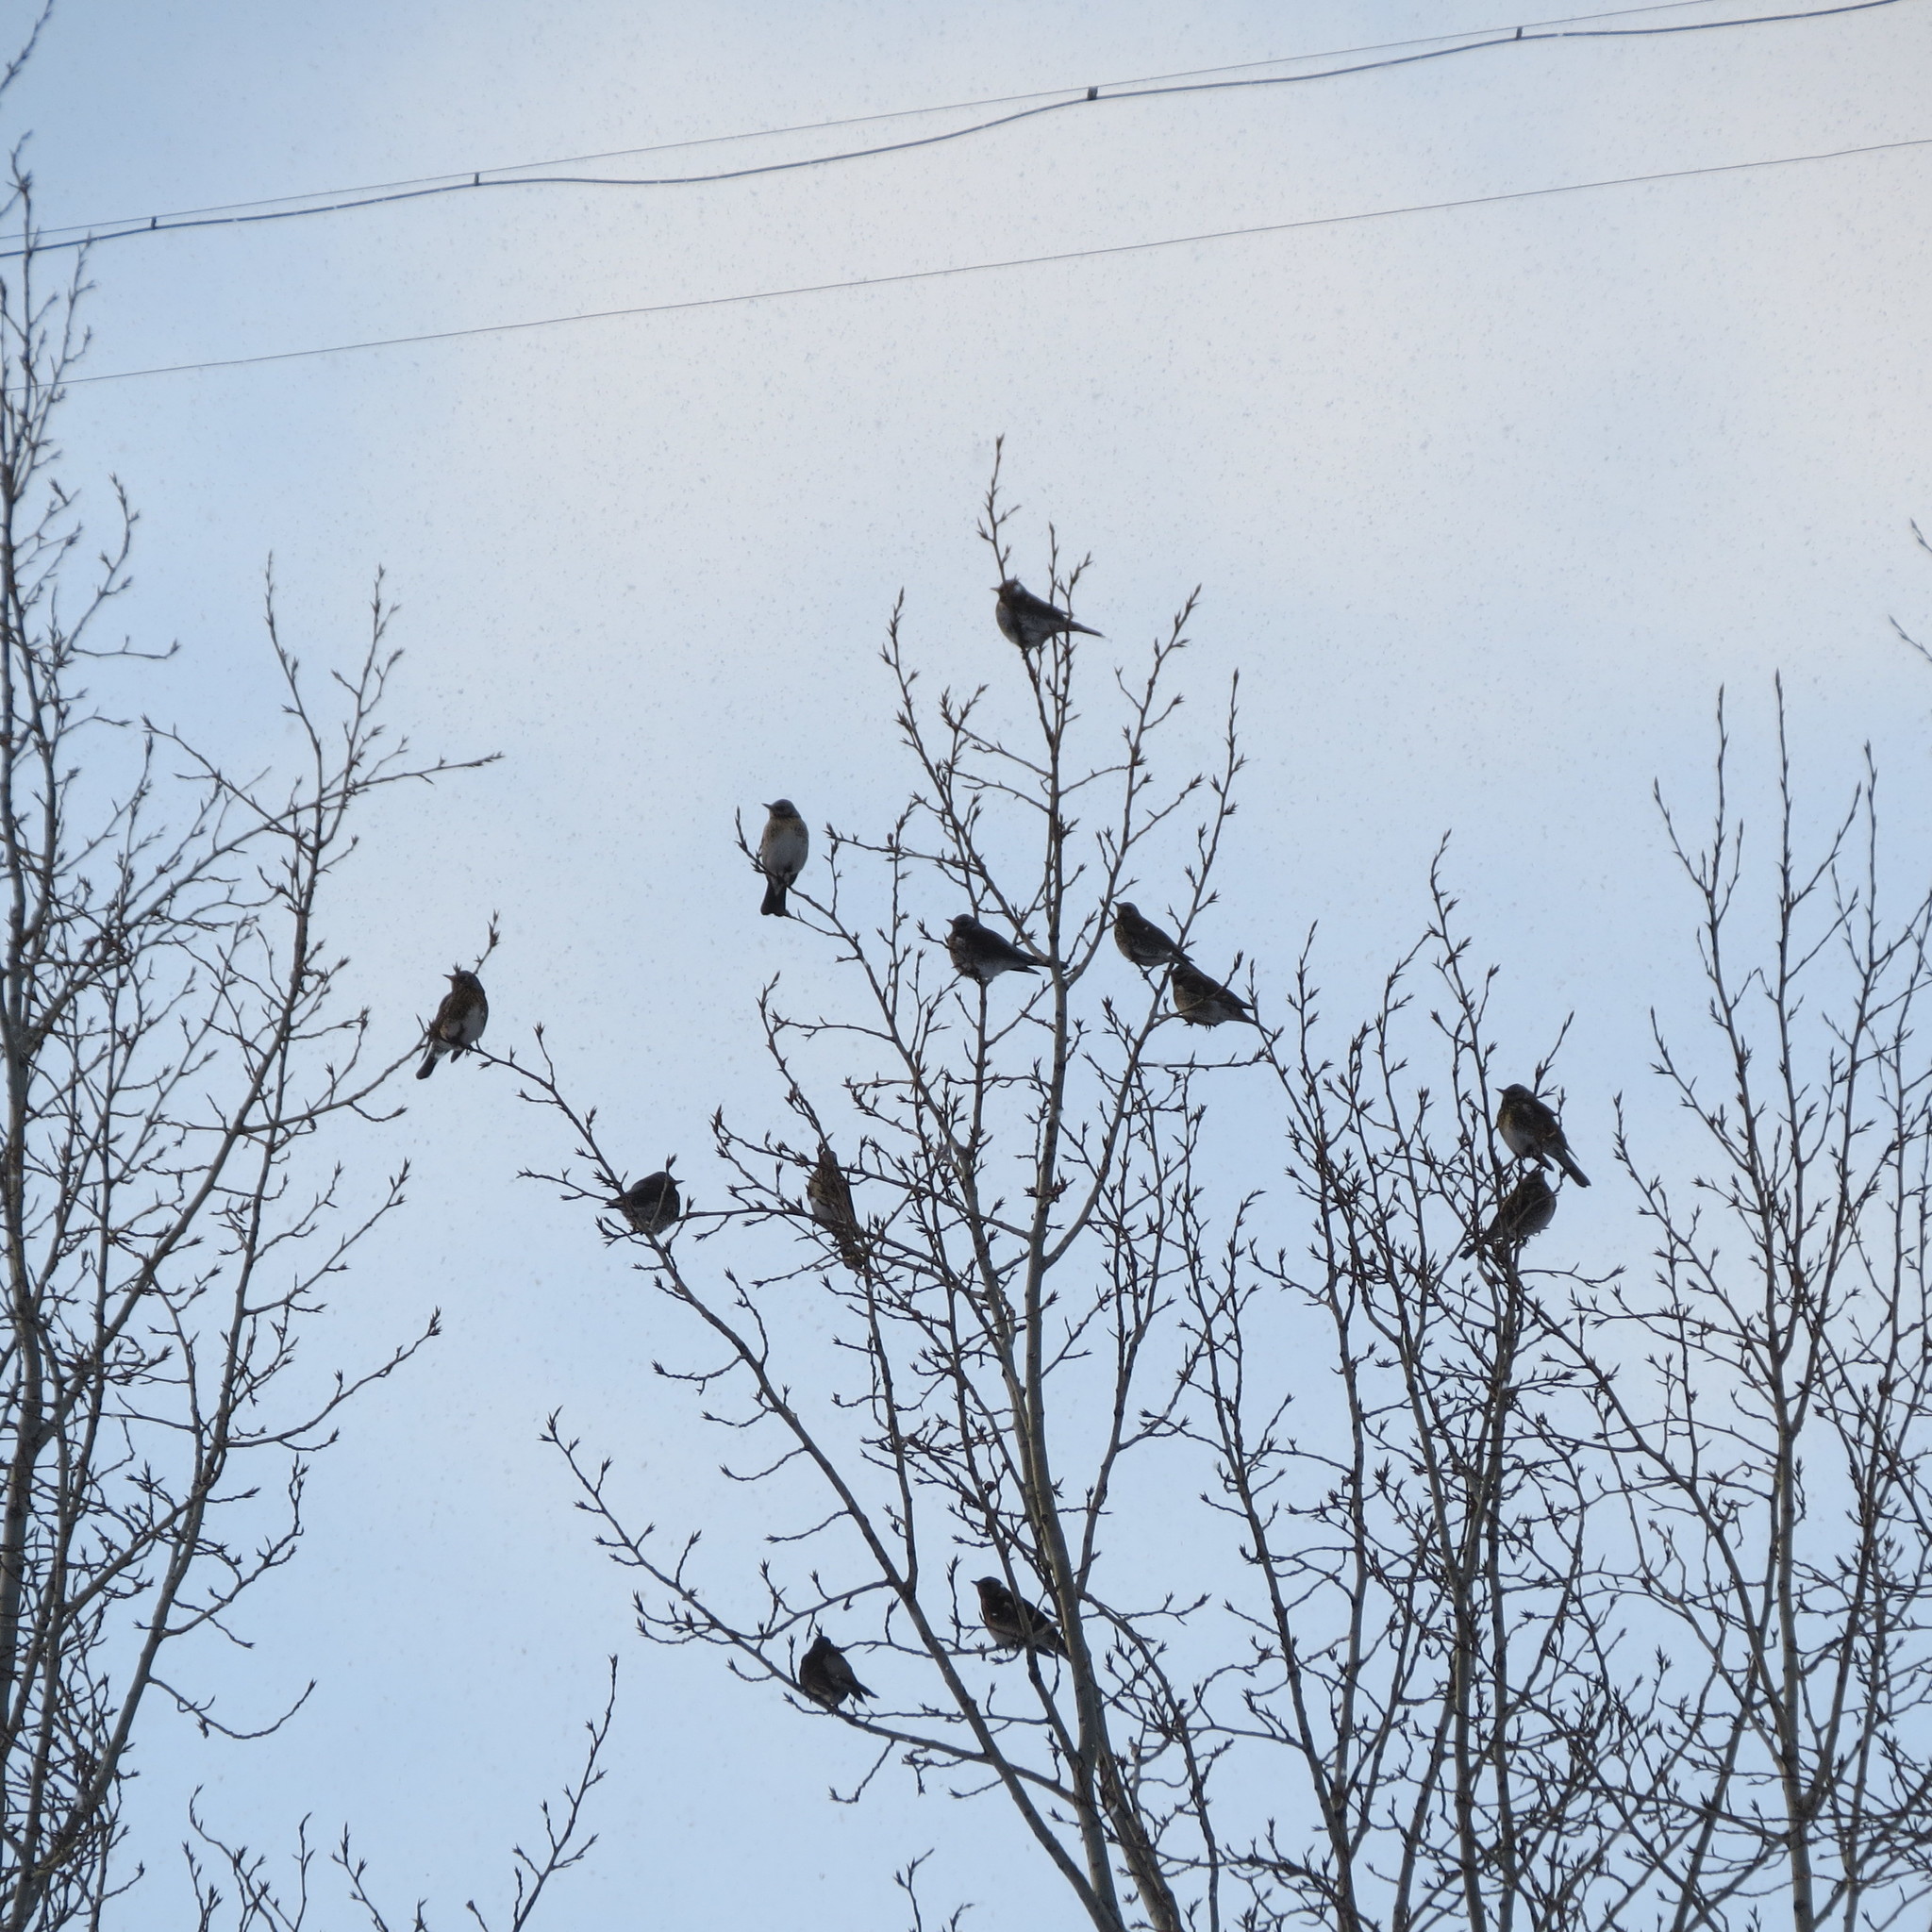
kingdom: Animalia
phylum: Chordata
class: Aves
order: Passeriformes
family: Turdidae
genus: Turdus
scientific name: Turdus pilaris
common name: Fieldfare
